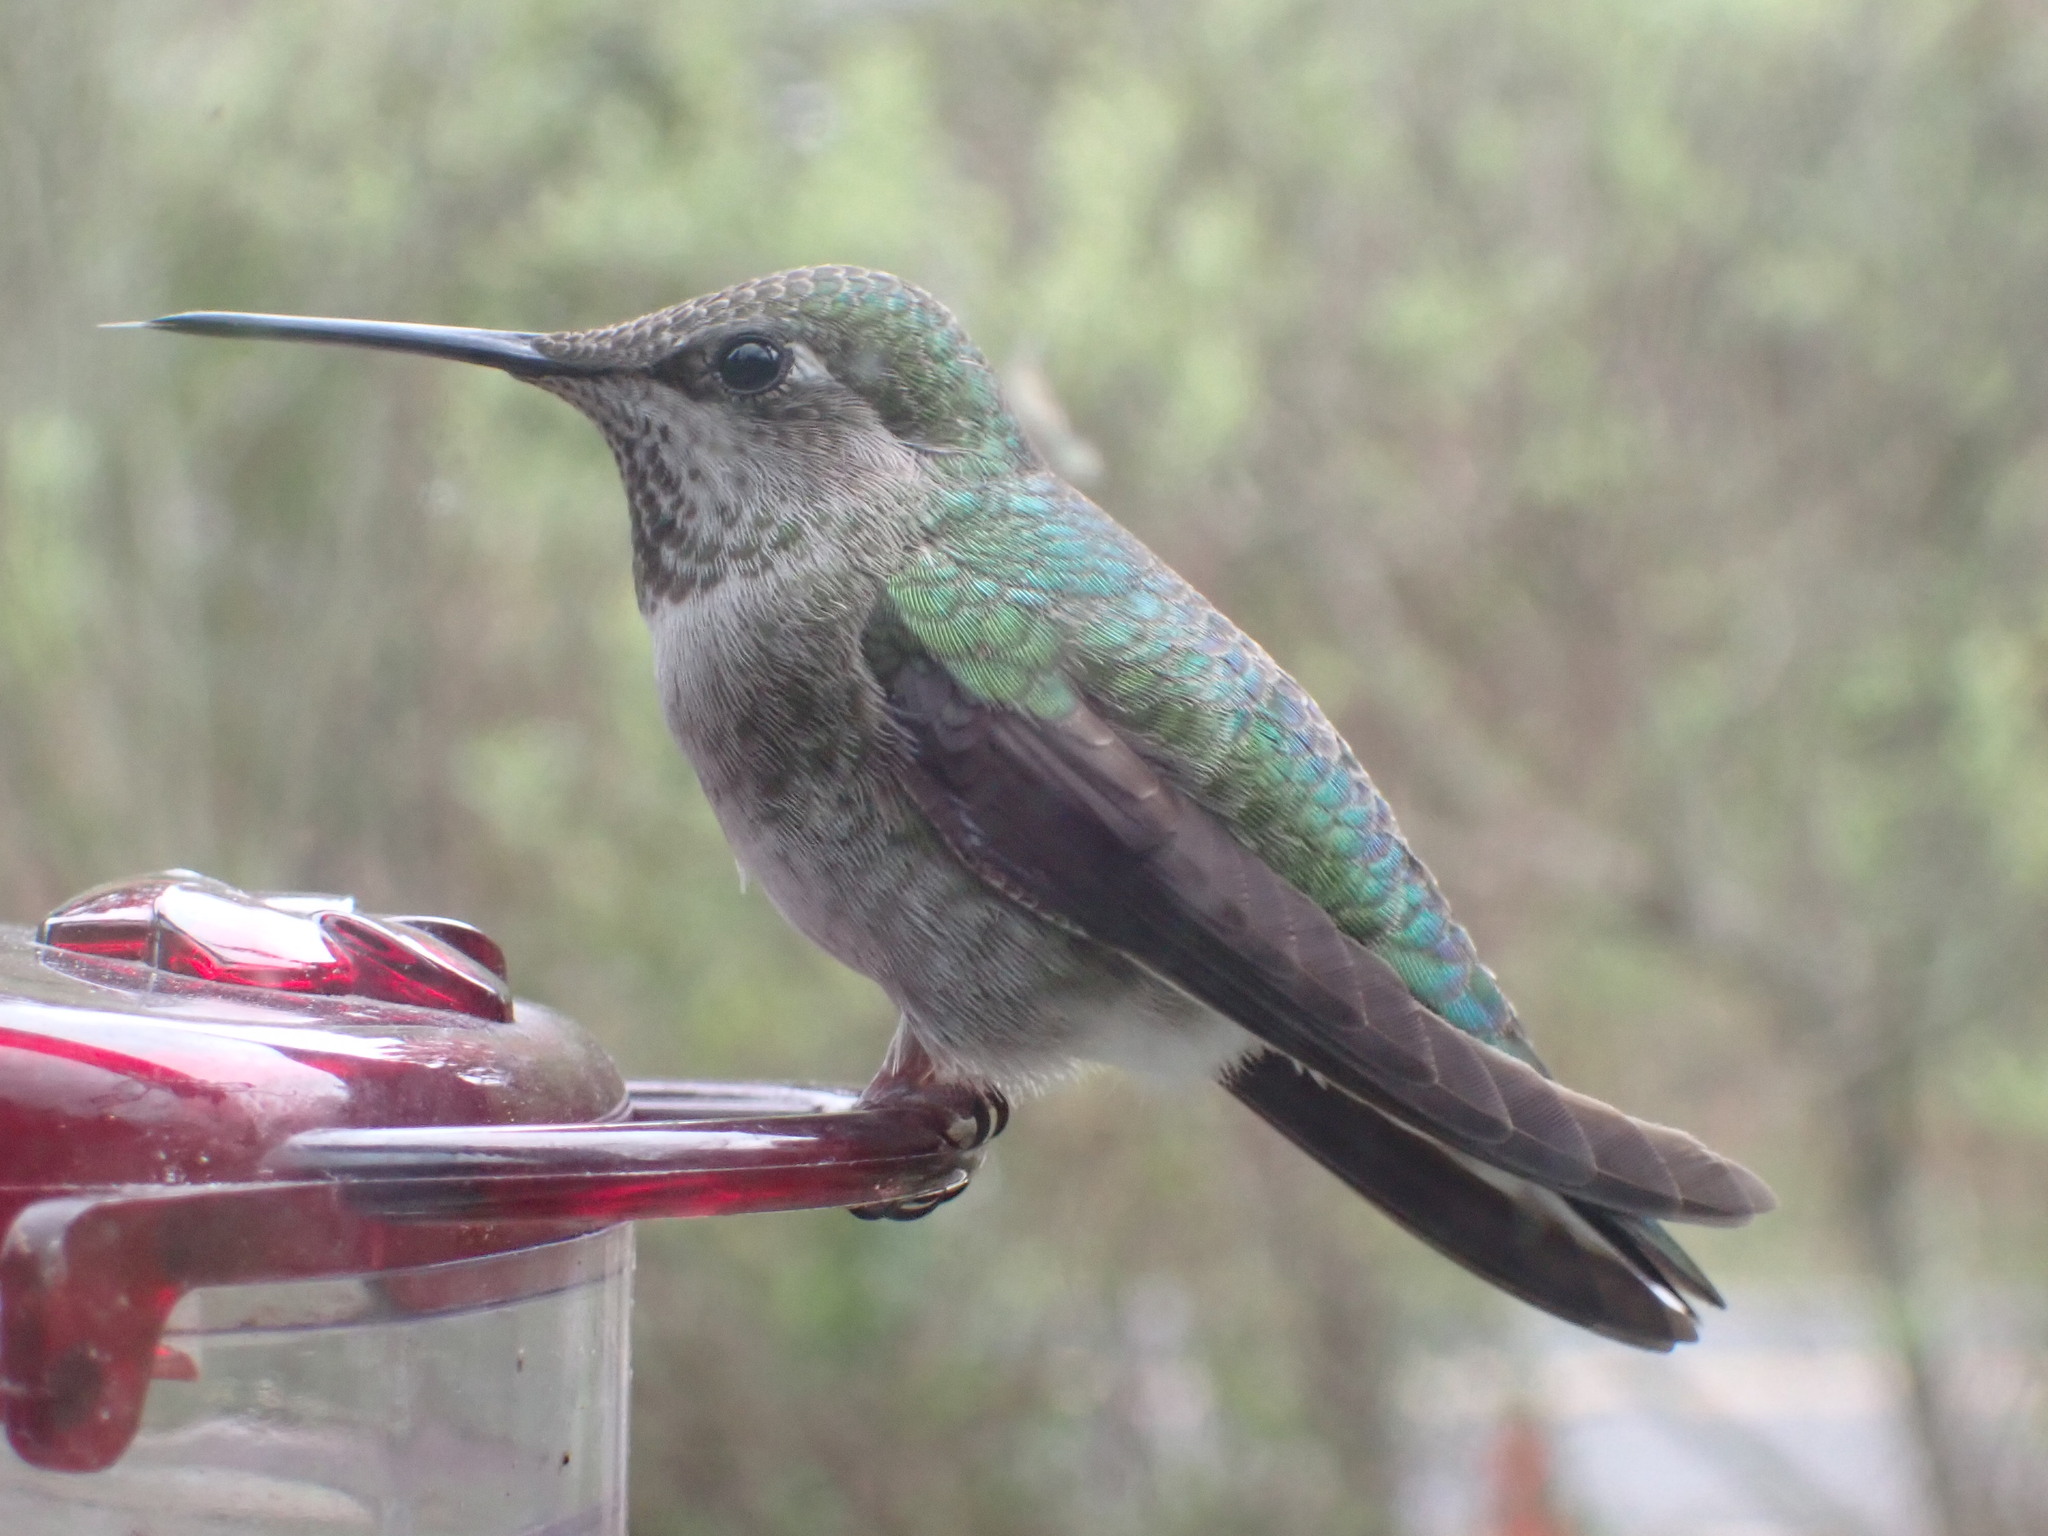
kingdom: Animalia
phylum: Chordata
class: Aves
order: Apodiformes
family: Trochilidae
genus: Calypte
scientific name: Calypte anna
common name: Anna's hummingbird
